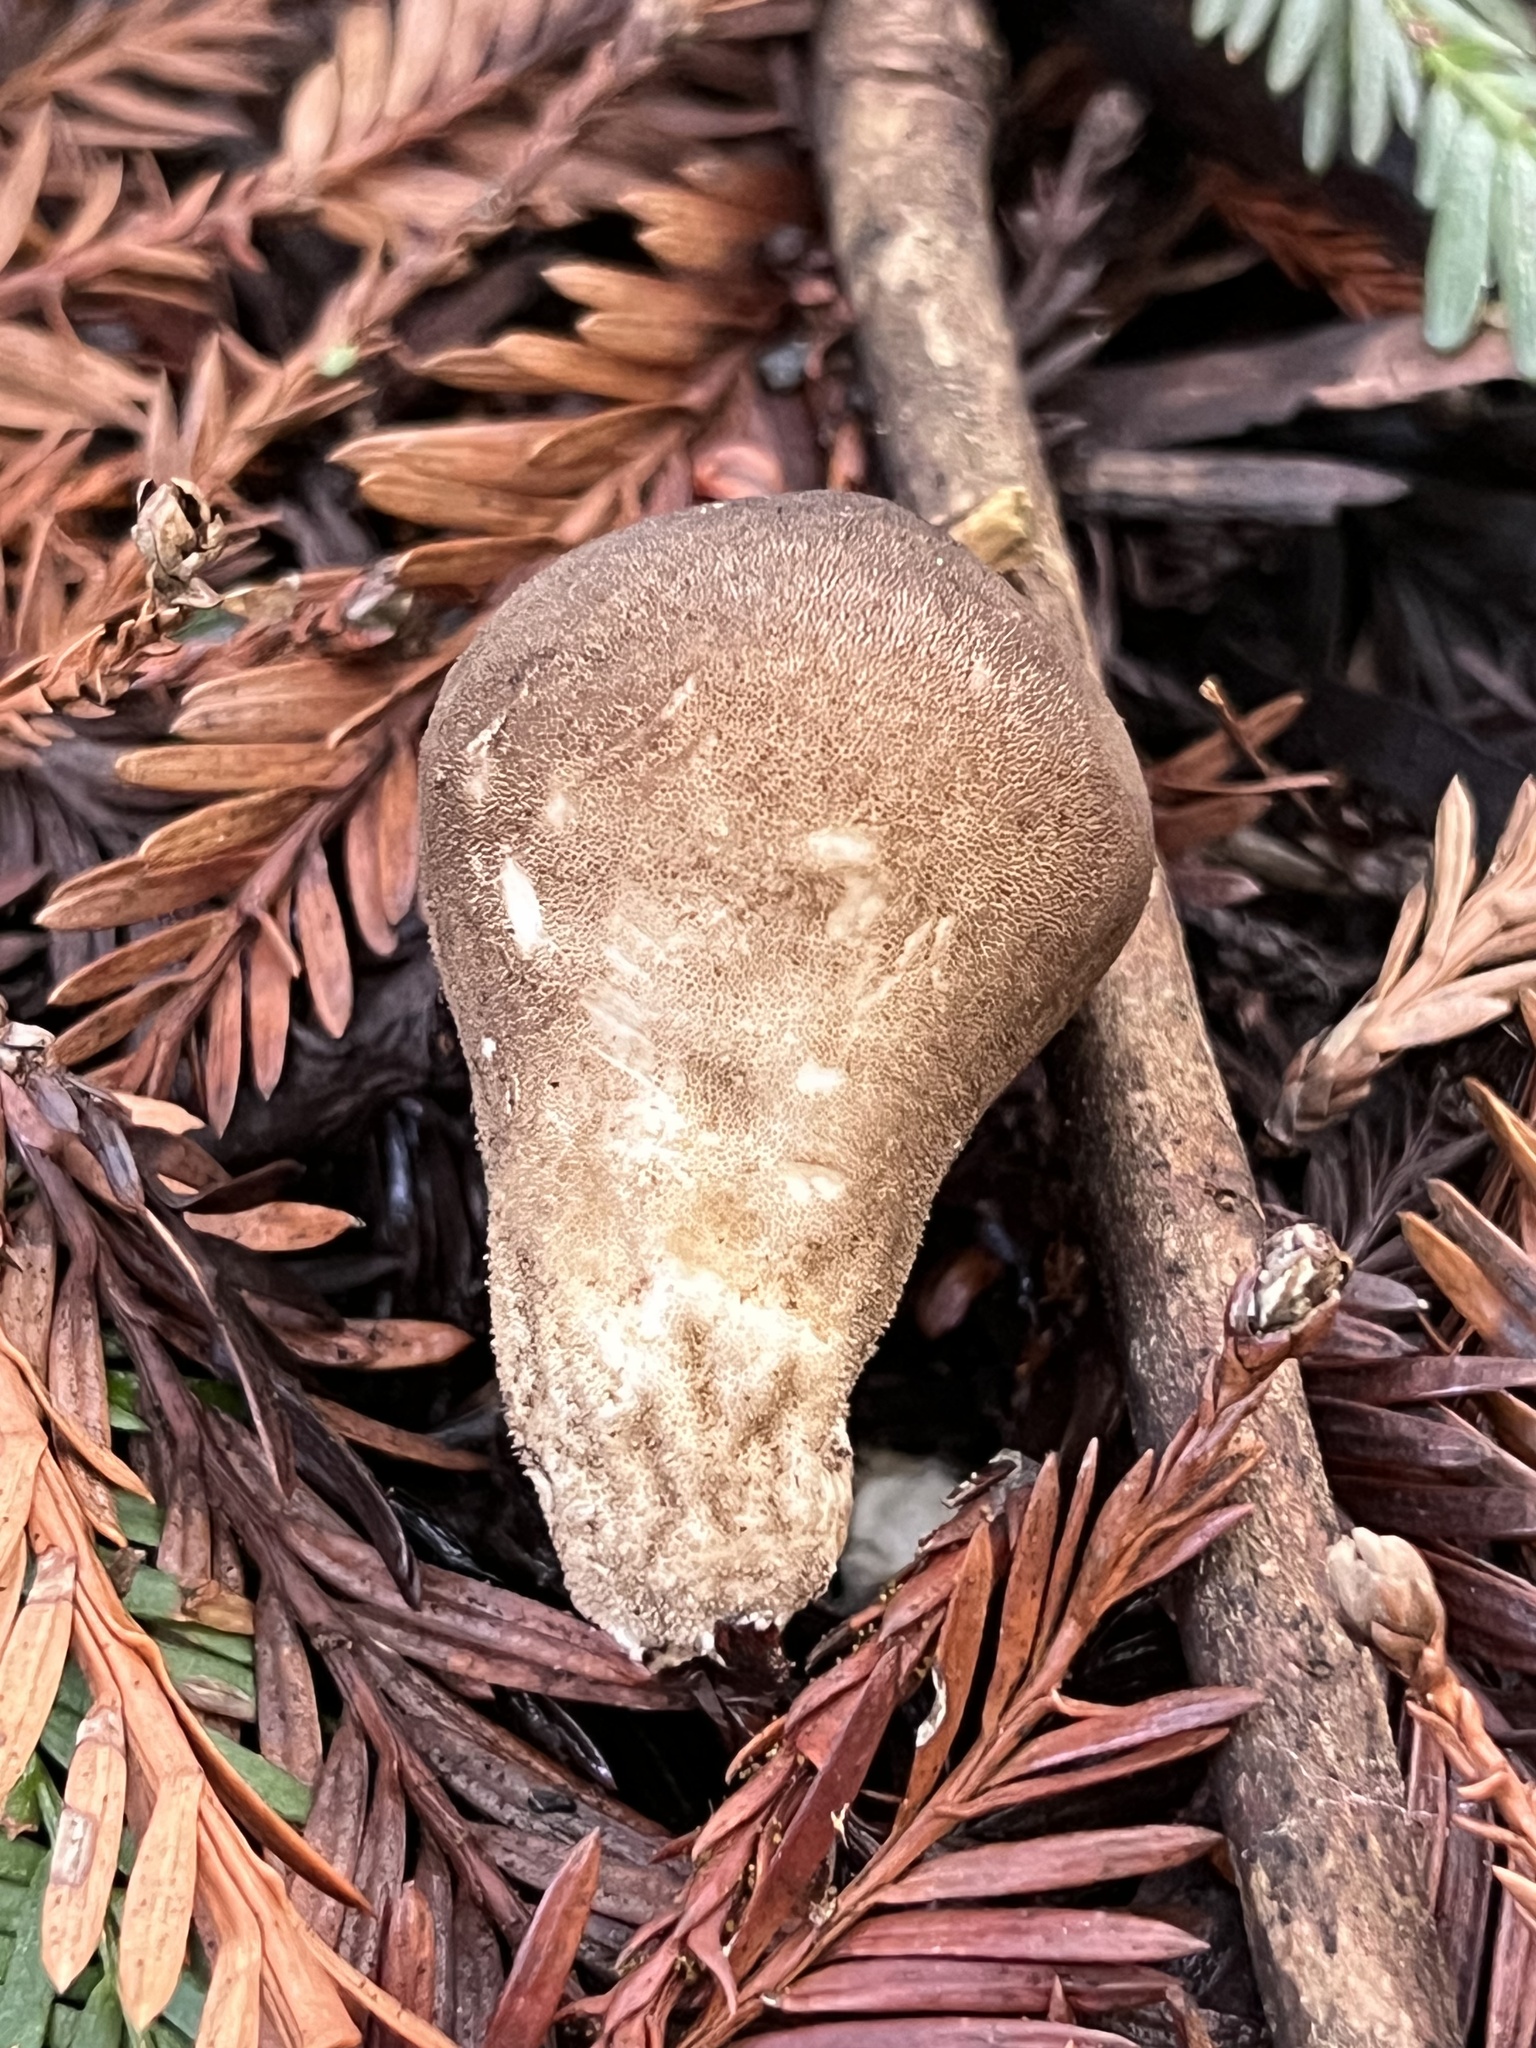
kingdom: Fungi
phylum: Basidiomycota
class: Agaricomycetes
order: Agaricales
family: Lycoperdaceae
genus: Lycoperdon
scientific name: Lycoperdon umbrinum
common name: Umber-brown puffball
